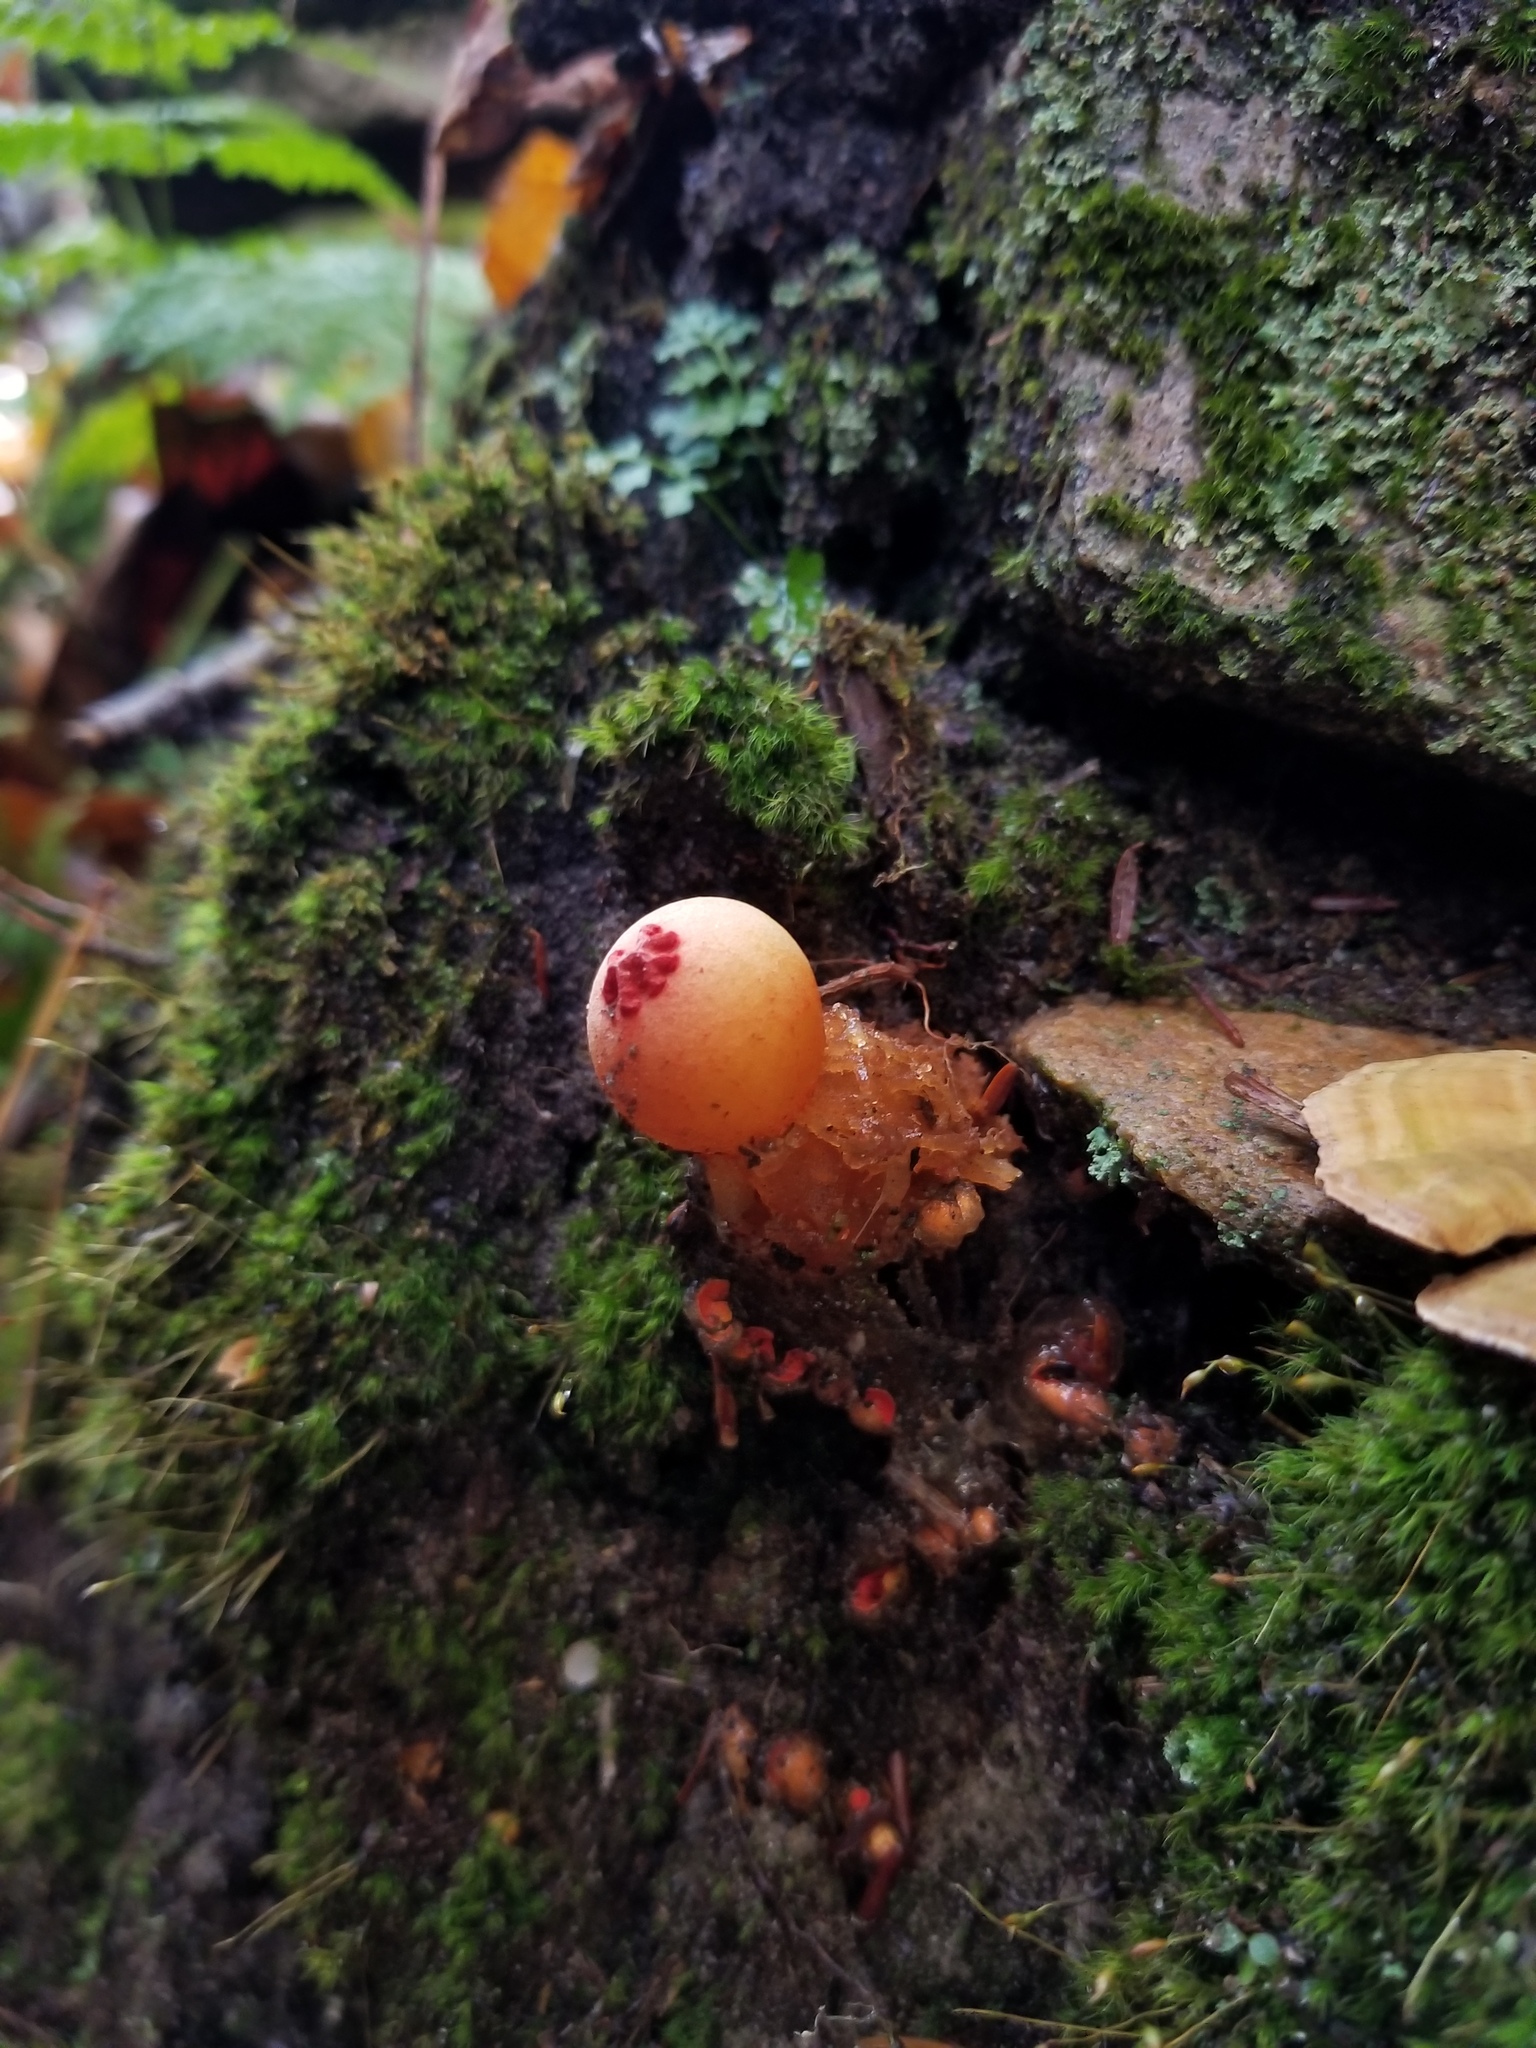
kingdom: Fungi
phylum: Basidiomycota
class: Agaricomycetes
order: Boletales
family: Calostomataceae
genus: Calostoma
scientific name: Calostoma cinnabarinum
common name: Stalked puffball-in-aspic
